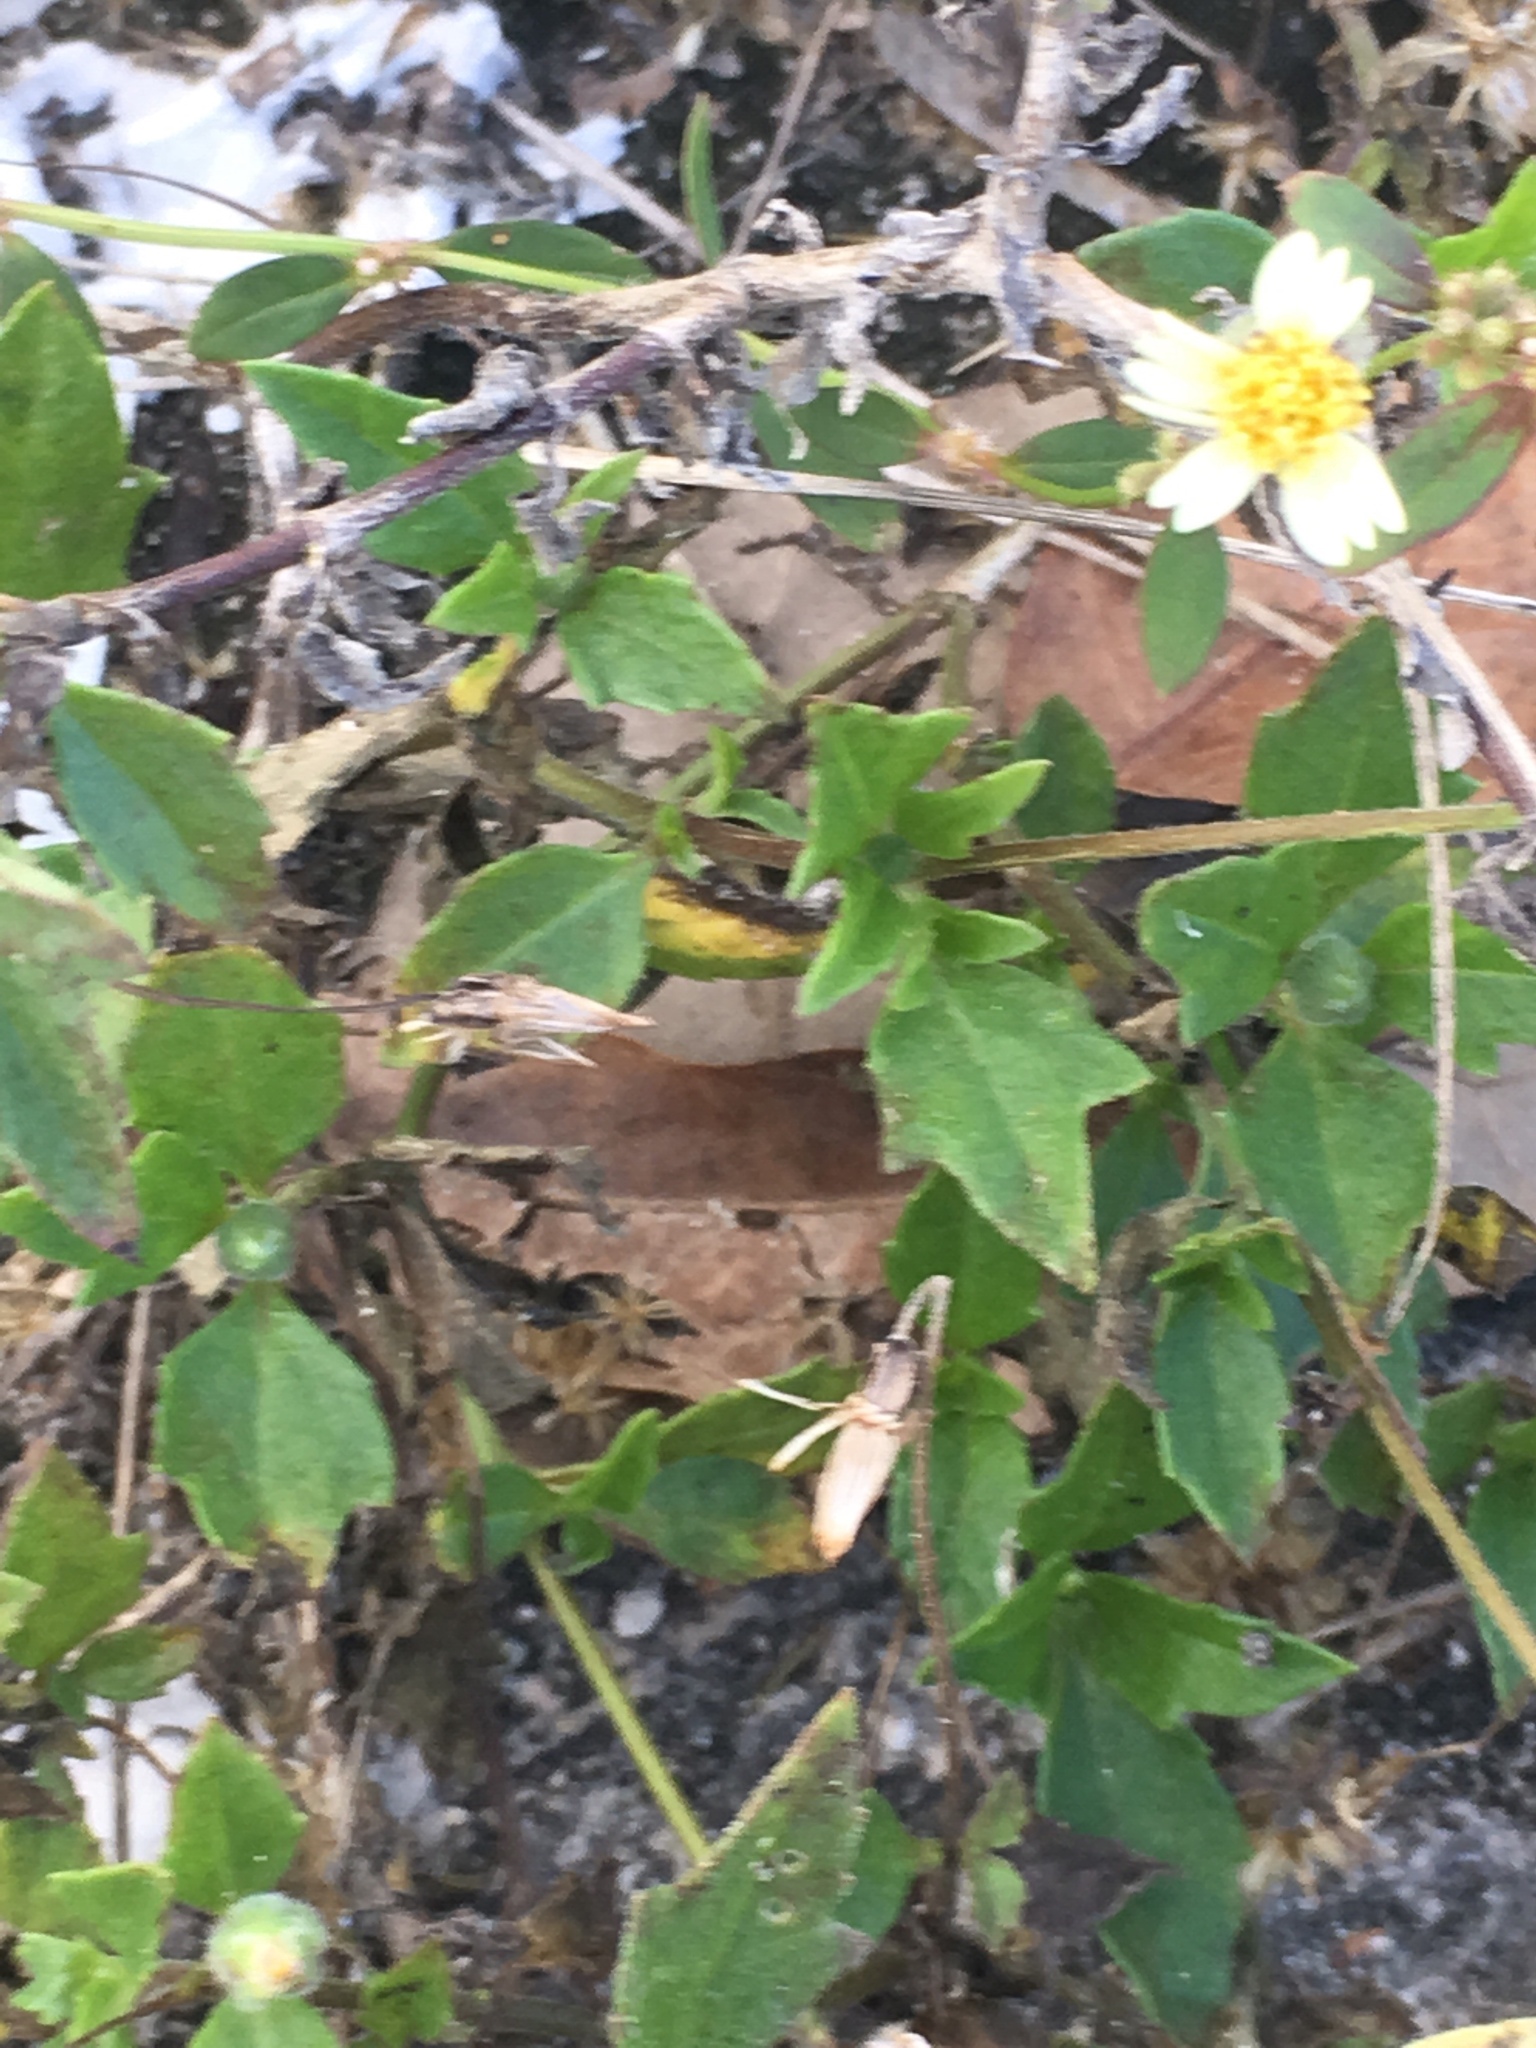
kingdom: Plantae
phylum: Tracheophyta
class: Magnoliopsida
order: Asterales
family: Asteraceae
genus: Tridax
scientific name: Tridax procumbens
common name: Coatbuttons
